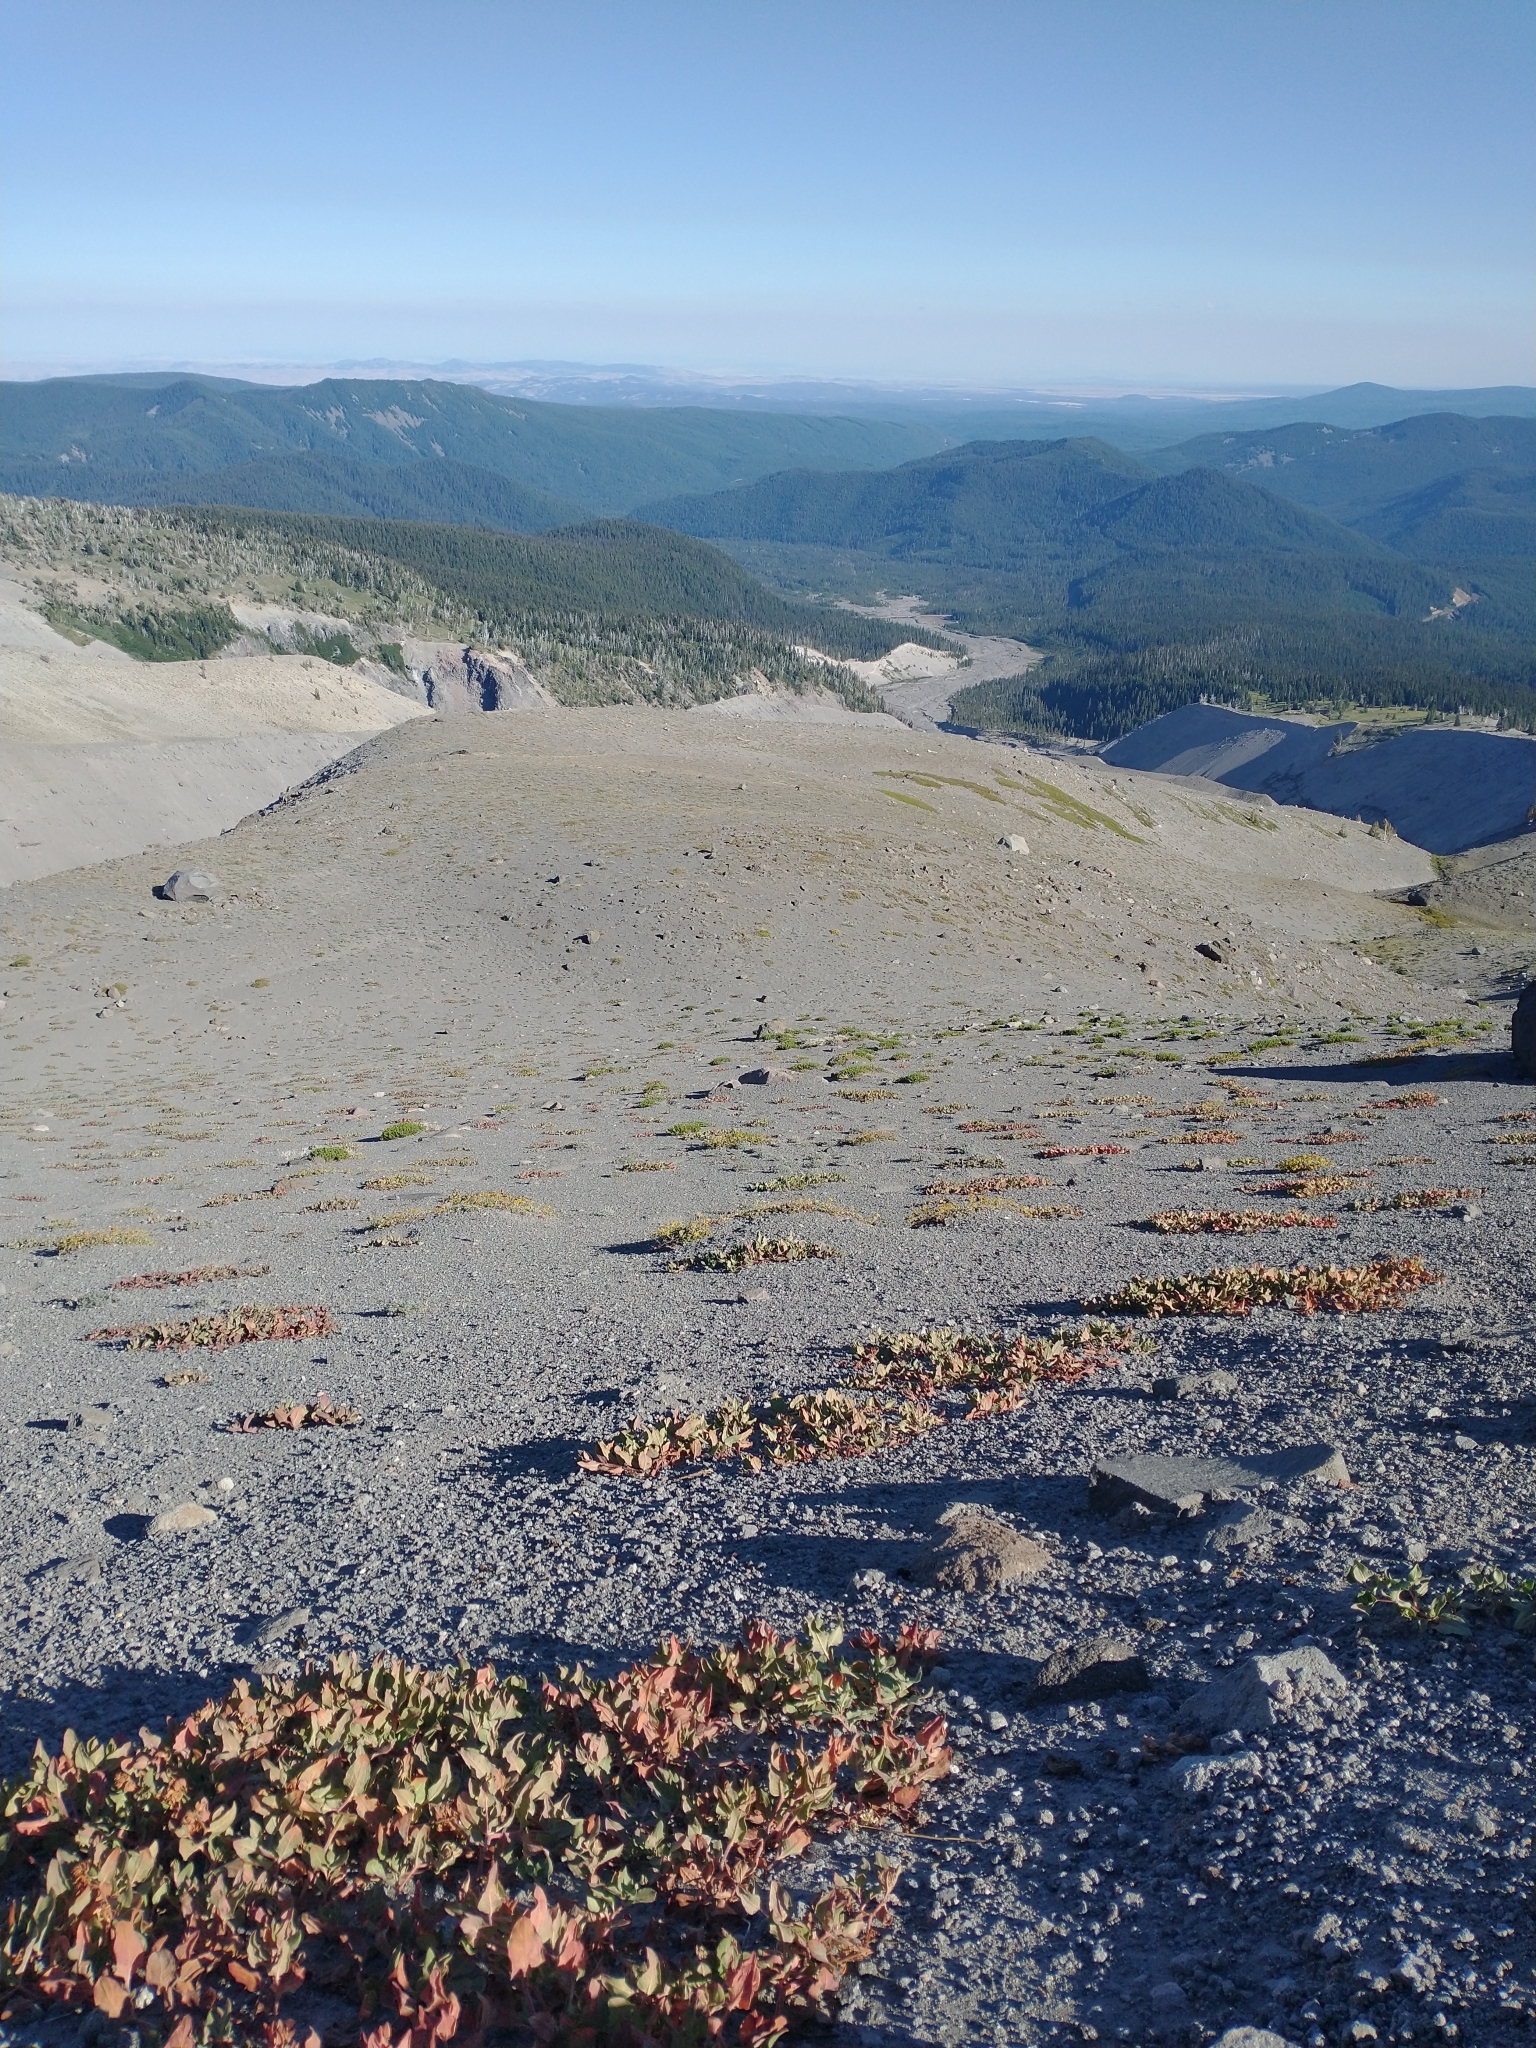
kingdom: Plantae
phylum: Tracheophyta
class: Magnoliopsida
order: Caryophyllales
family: Polygonaceae
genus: Koenigia
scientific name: Koenigia davisiae
